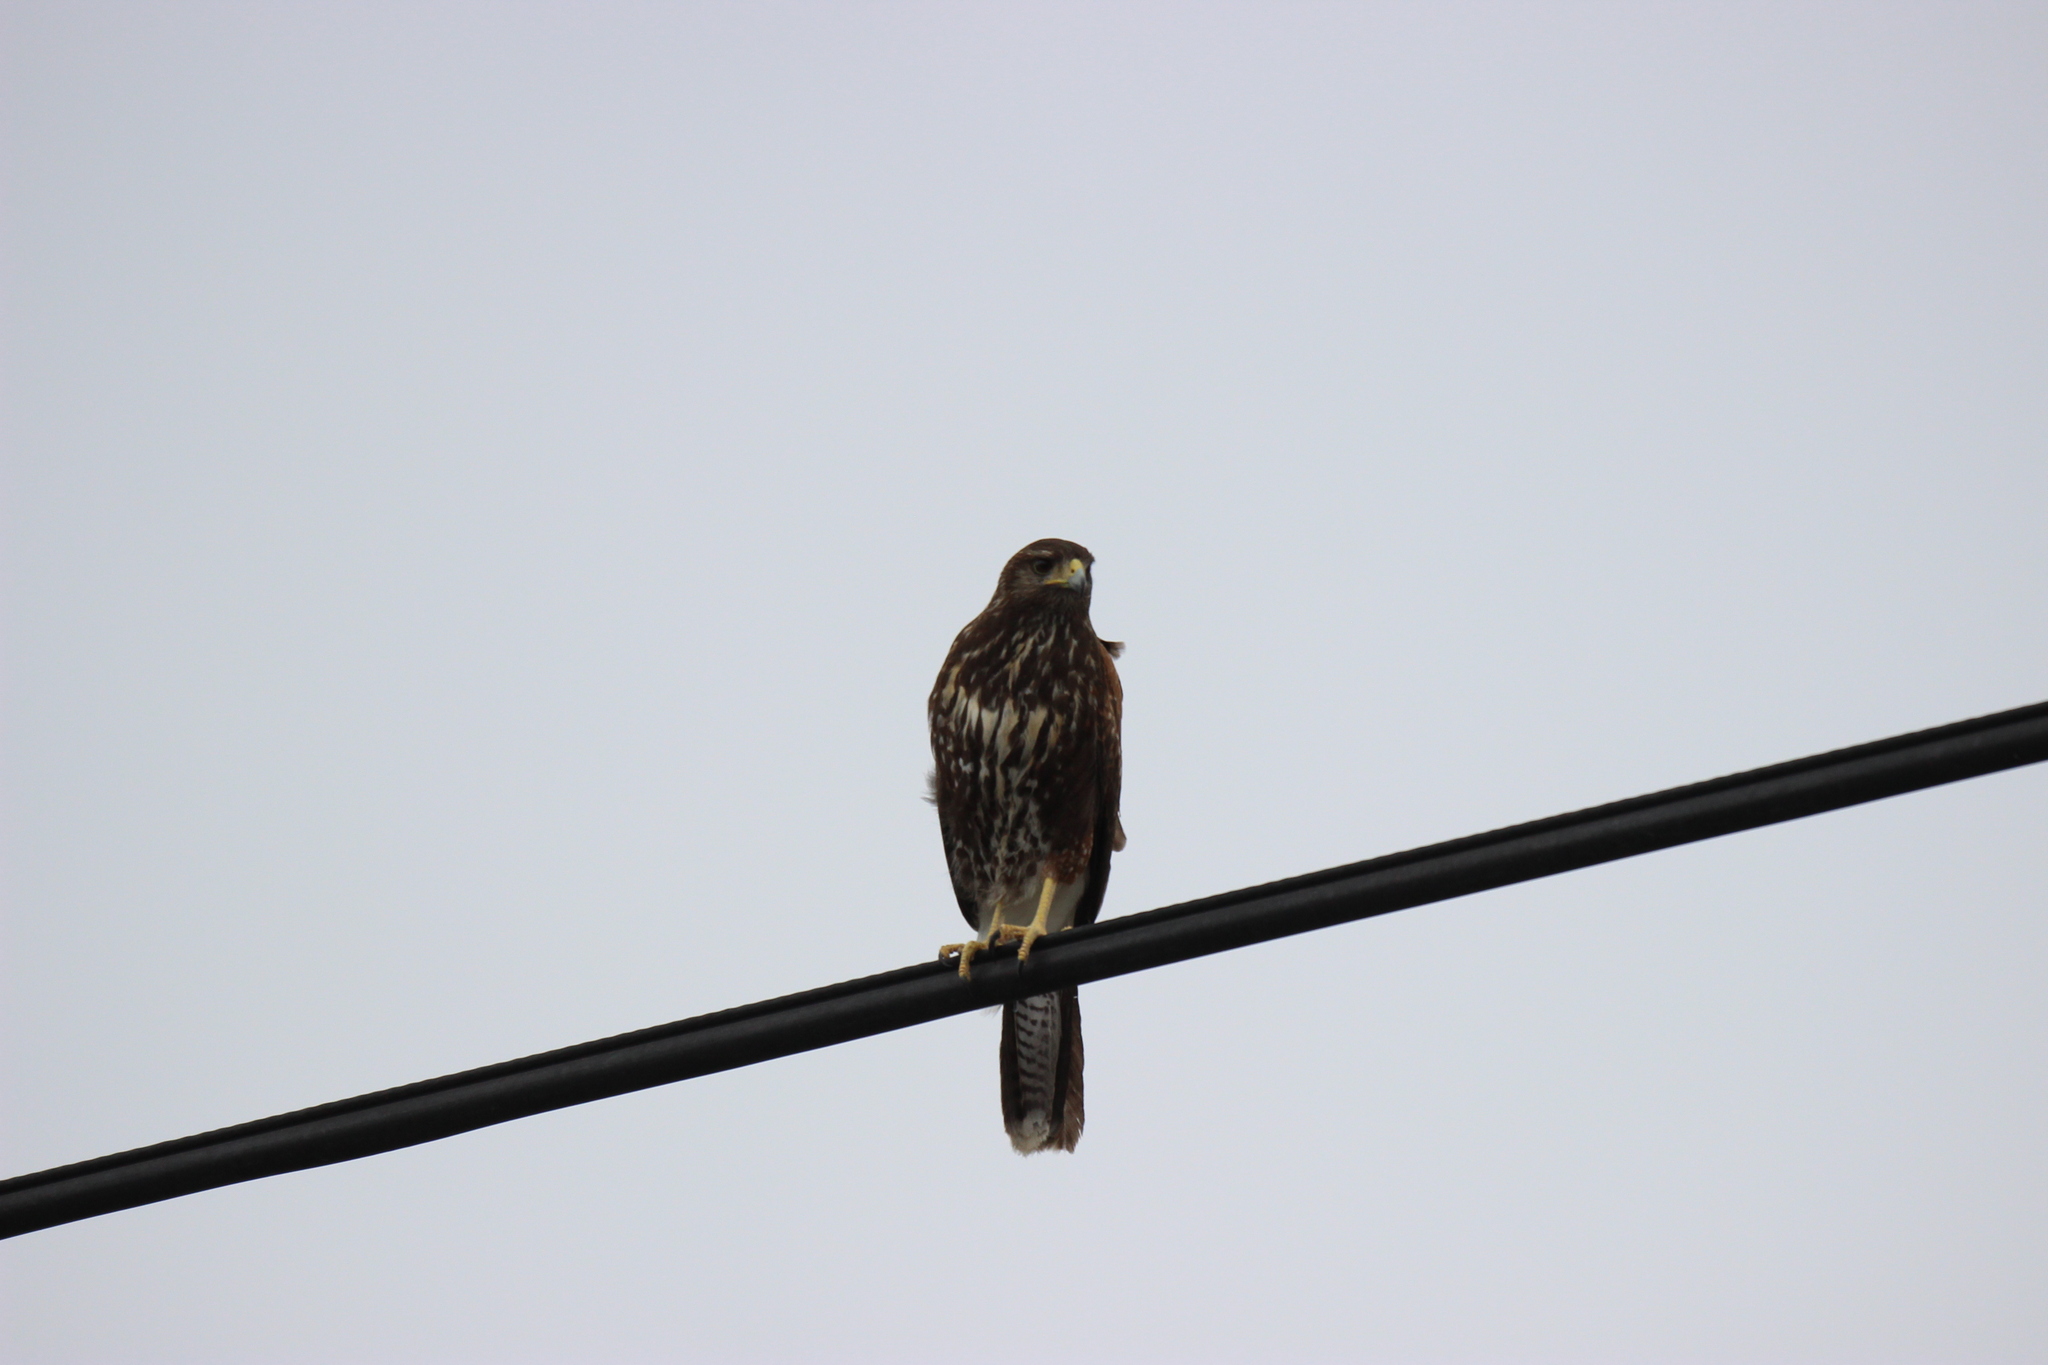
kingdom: Animalia
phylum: Chordata
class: Aves
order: Accipitriformes
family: Accipitridae
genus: Parabuteo
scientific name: Parabuteo unicinctus
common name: Harris's hawk
